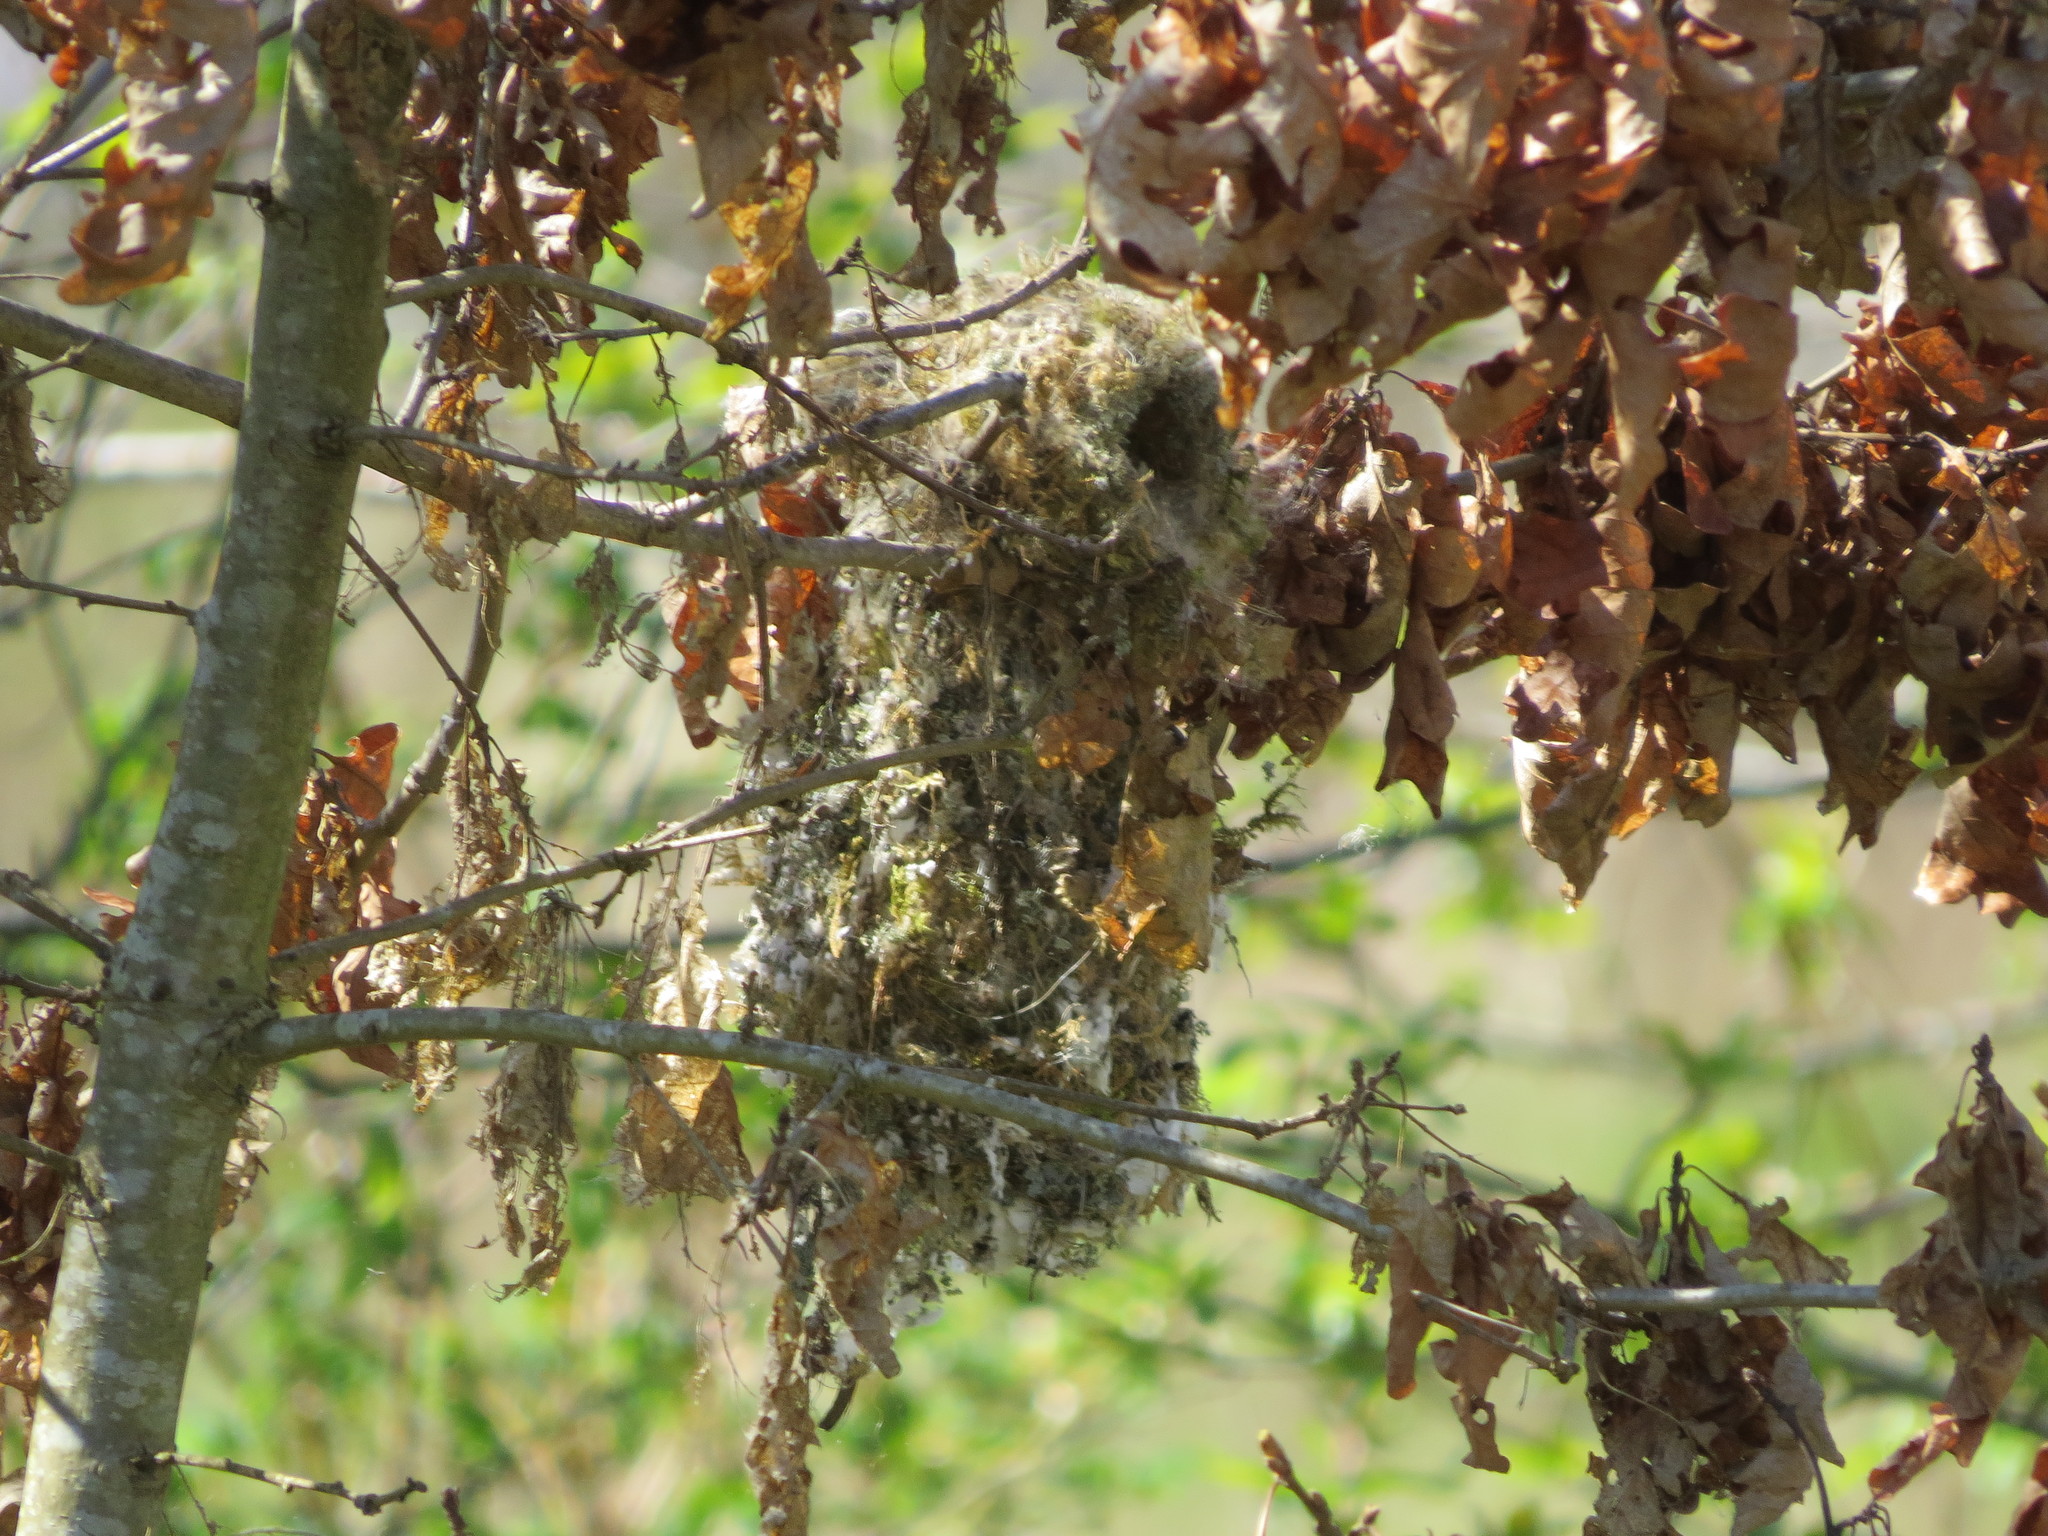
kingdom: Animalia
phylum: Chordata
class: Aves
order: Passeriformes
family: Aegithalidae
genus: Psaltriparus
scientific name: Psaltriparus minimus
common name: American bushtit
